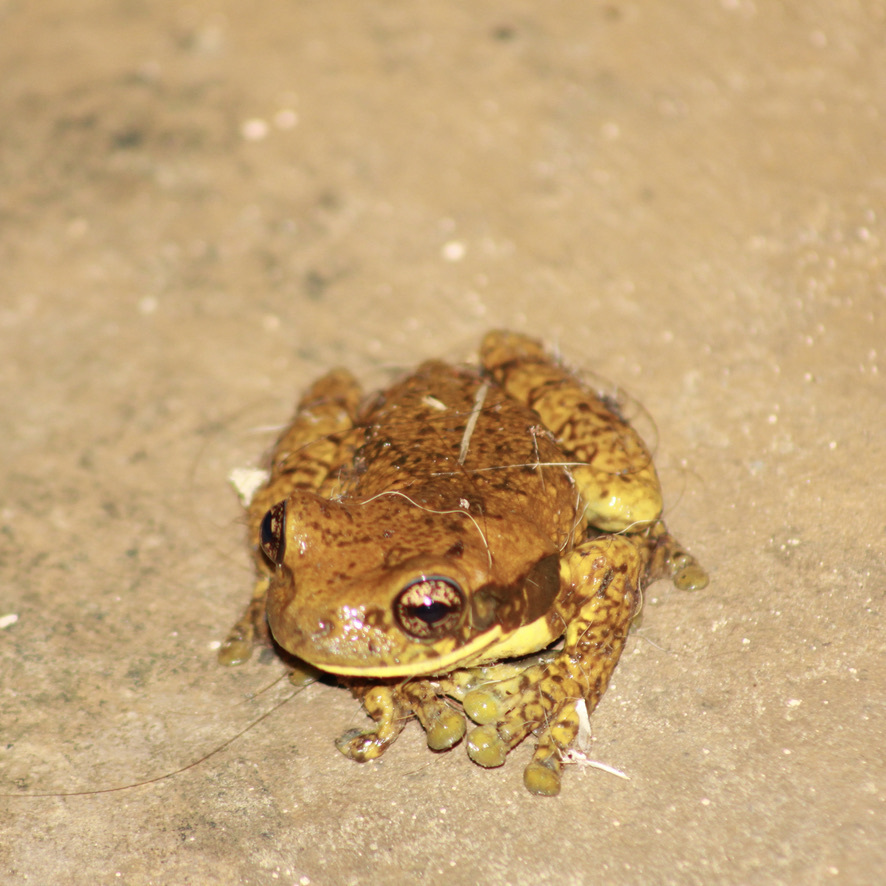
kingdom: Animalia
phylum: Chordata
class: Amphibia
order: Anura
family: Hylidae
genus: Trachycephalus
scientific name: Trachycephalus typhonius
